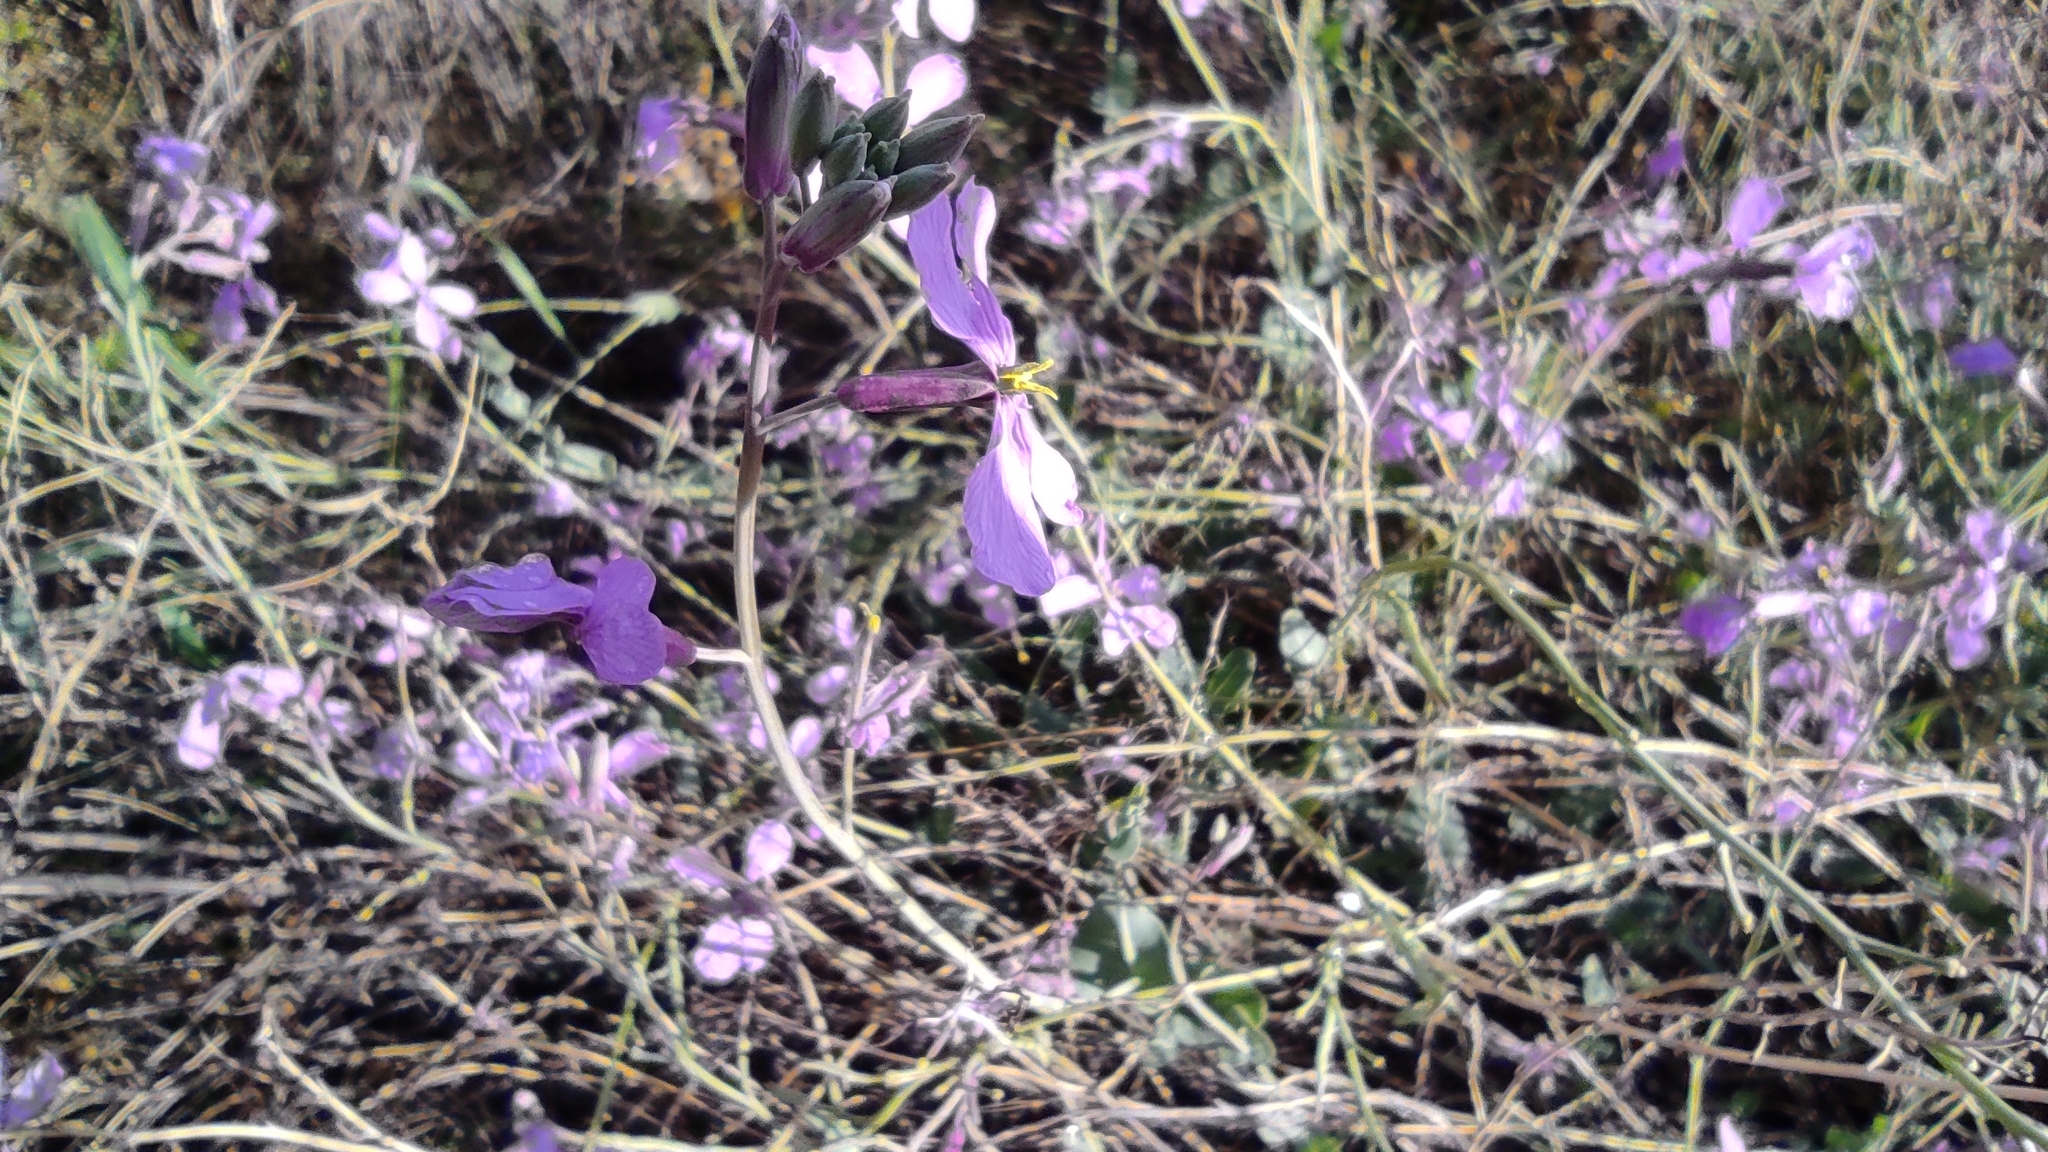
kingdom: Plantae
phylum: Tracheophyta
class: Magnoliopsida
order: Brassicales
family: Brassicaceae
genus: Moricandia
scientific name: Moricandia arvensis
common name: Purple mistress
